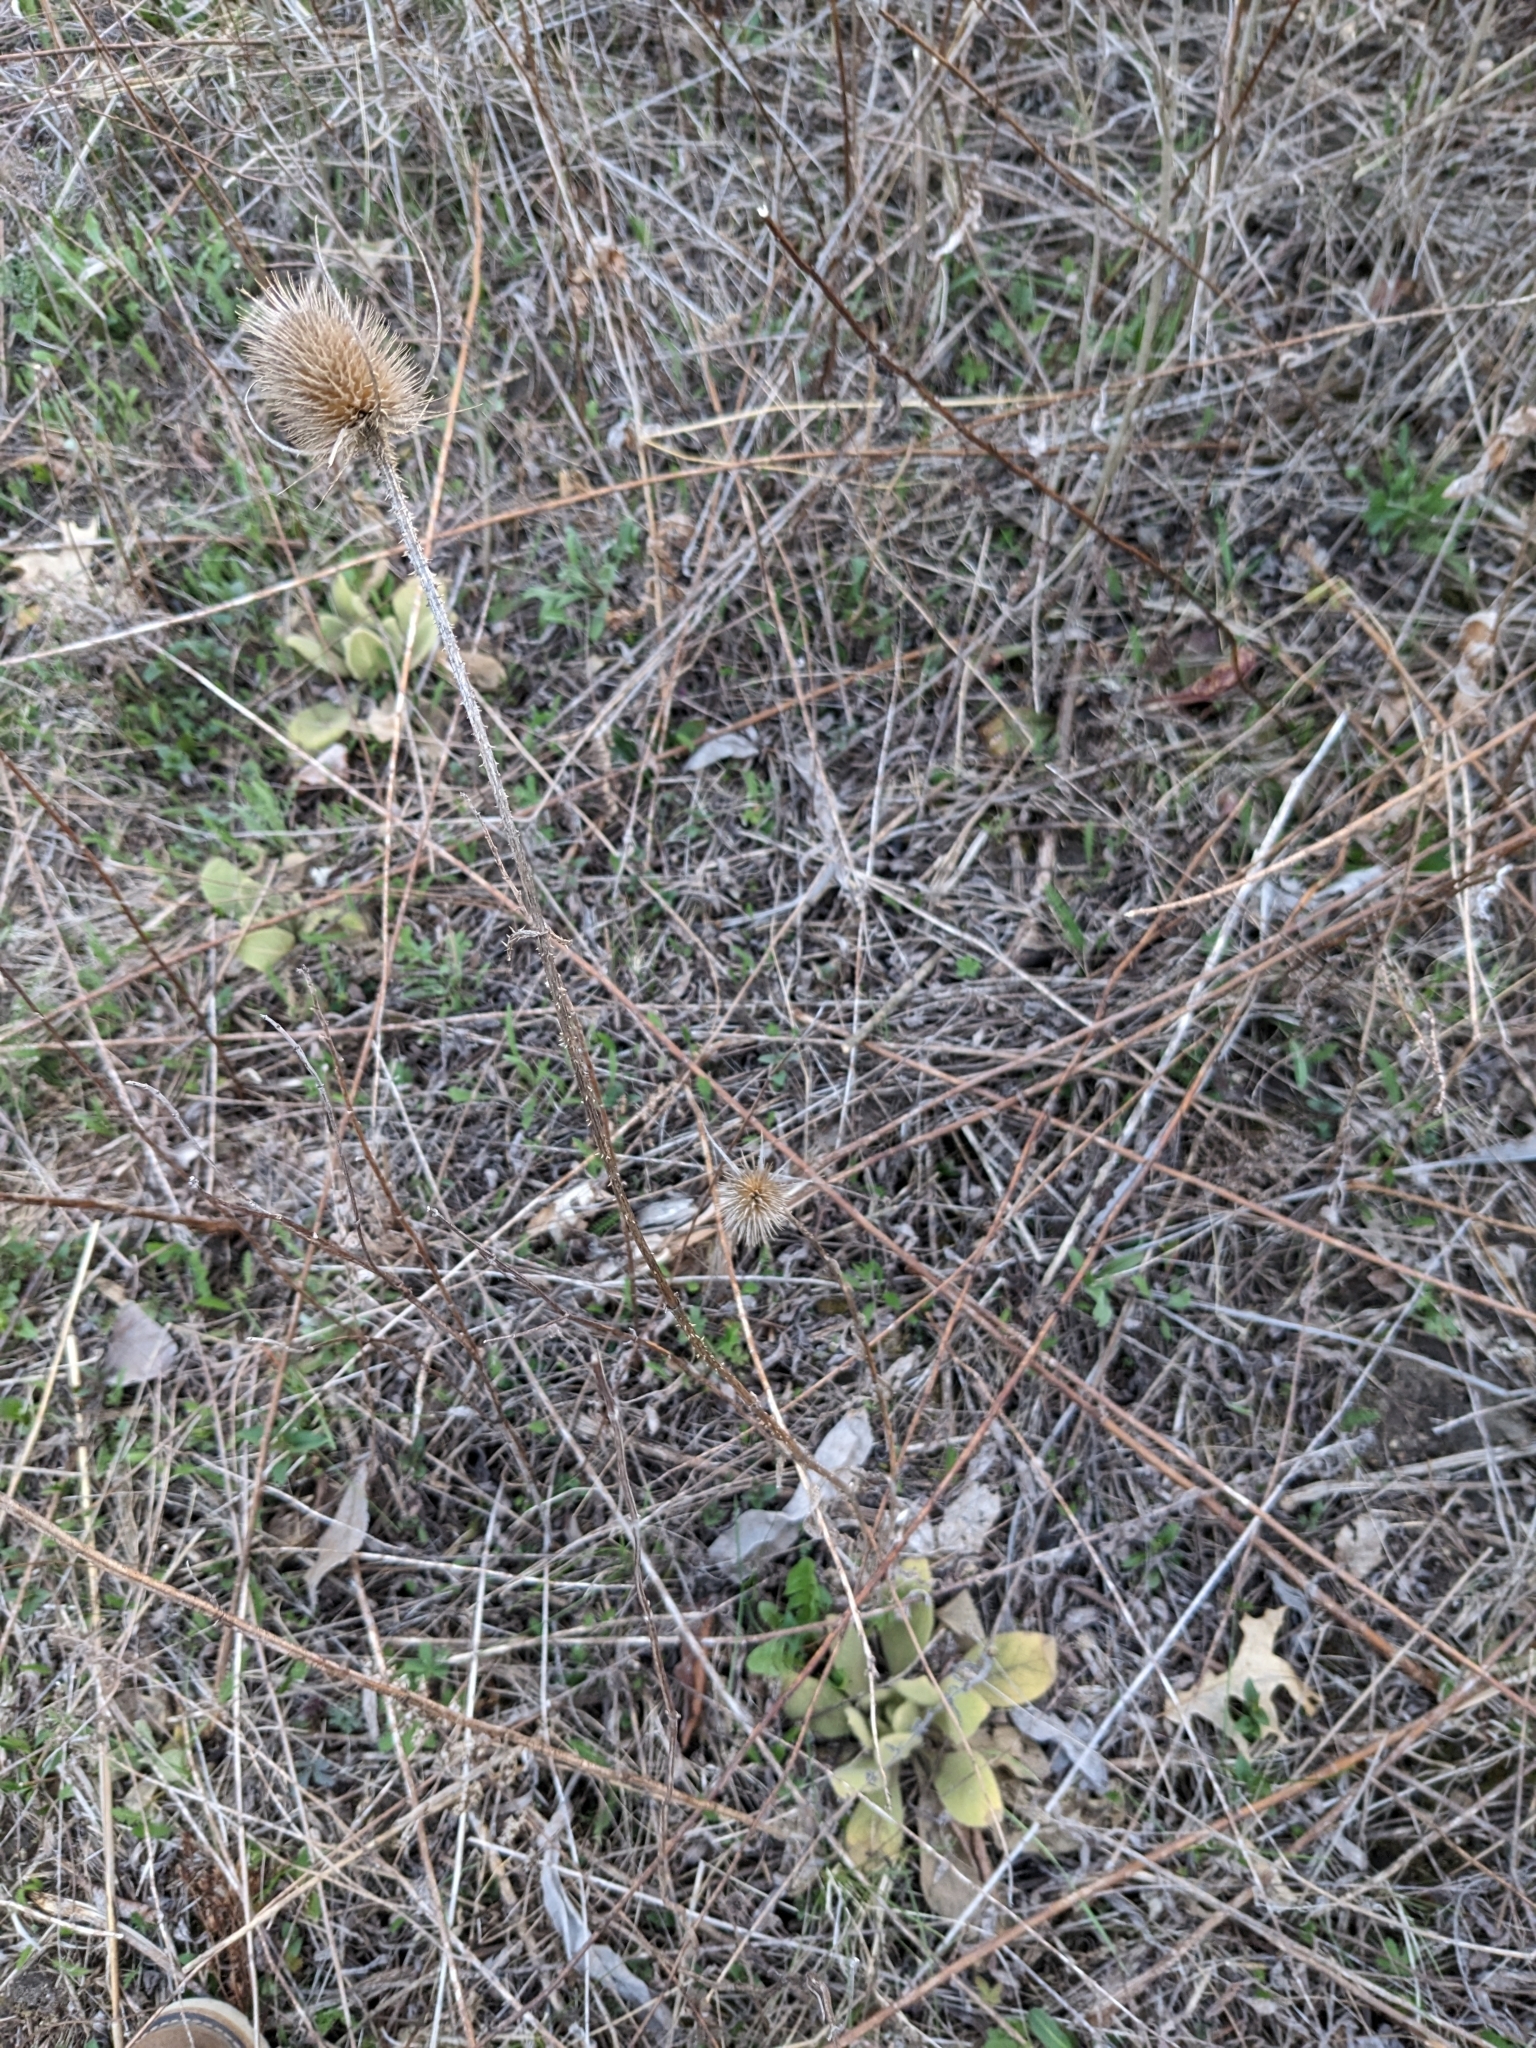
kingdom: Plantae
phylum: Tracheophyta
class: Magnoliopsida
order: Dipsacales
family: Caprifoliaceae
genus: Dipsacus
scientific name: Dipsacus fullonum
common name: Teasel
